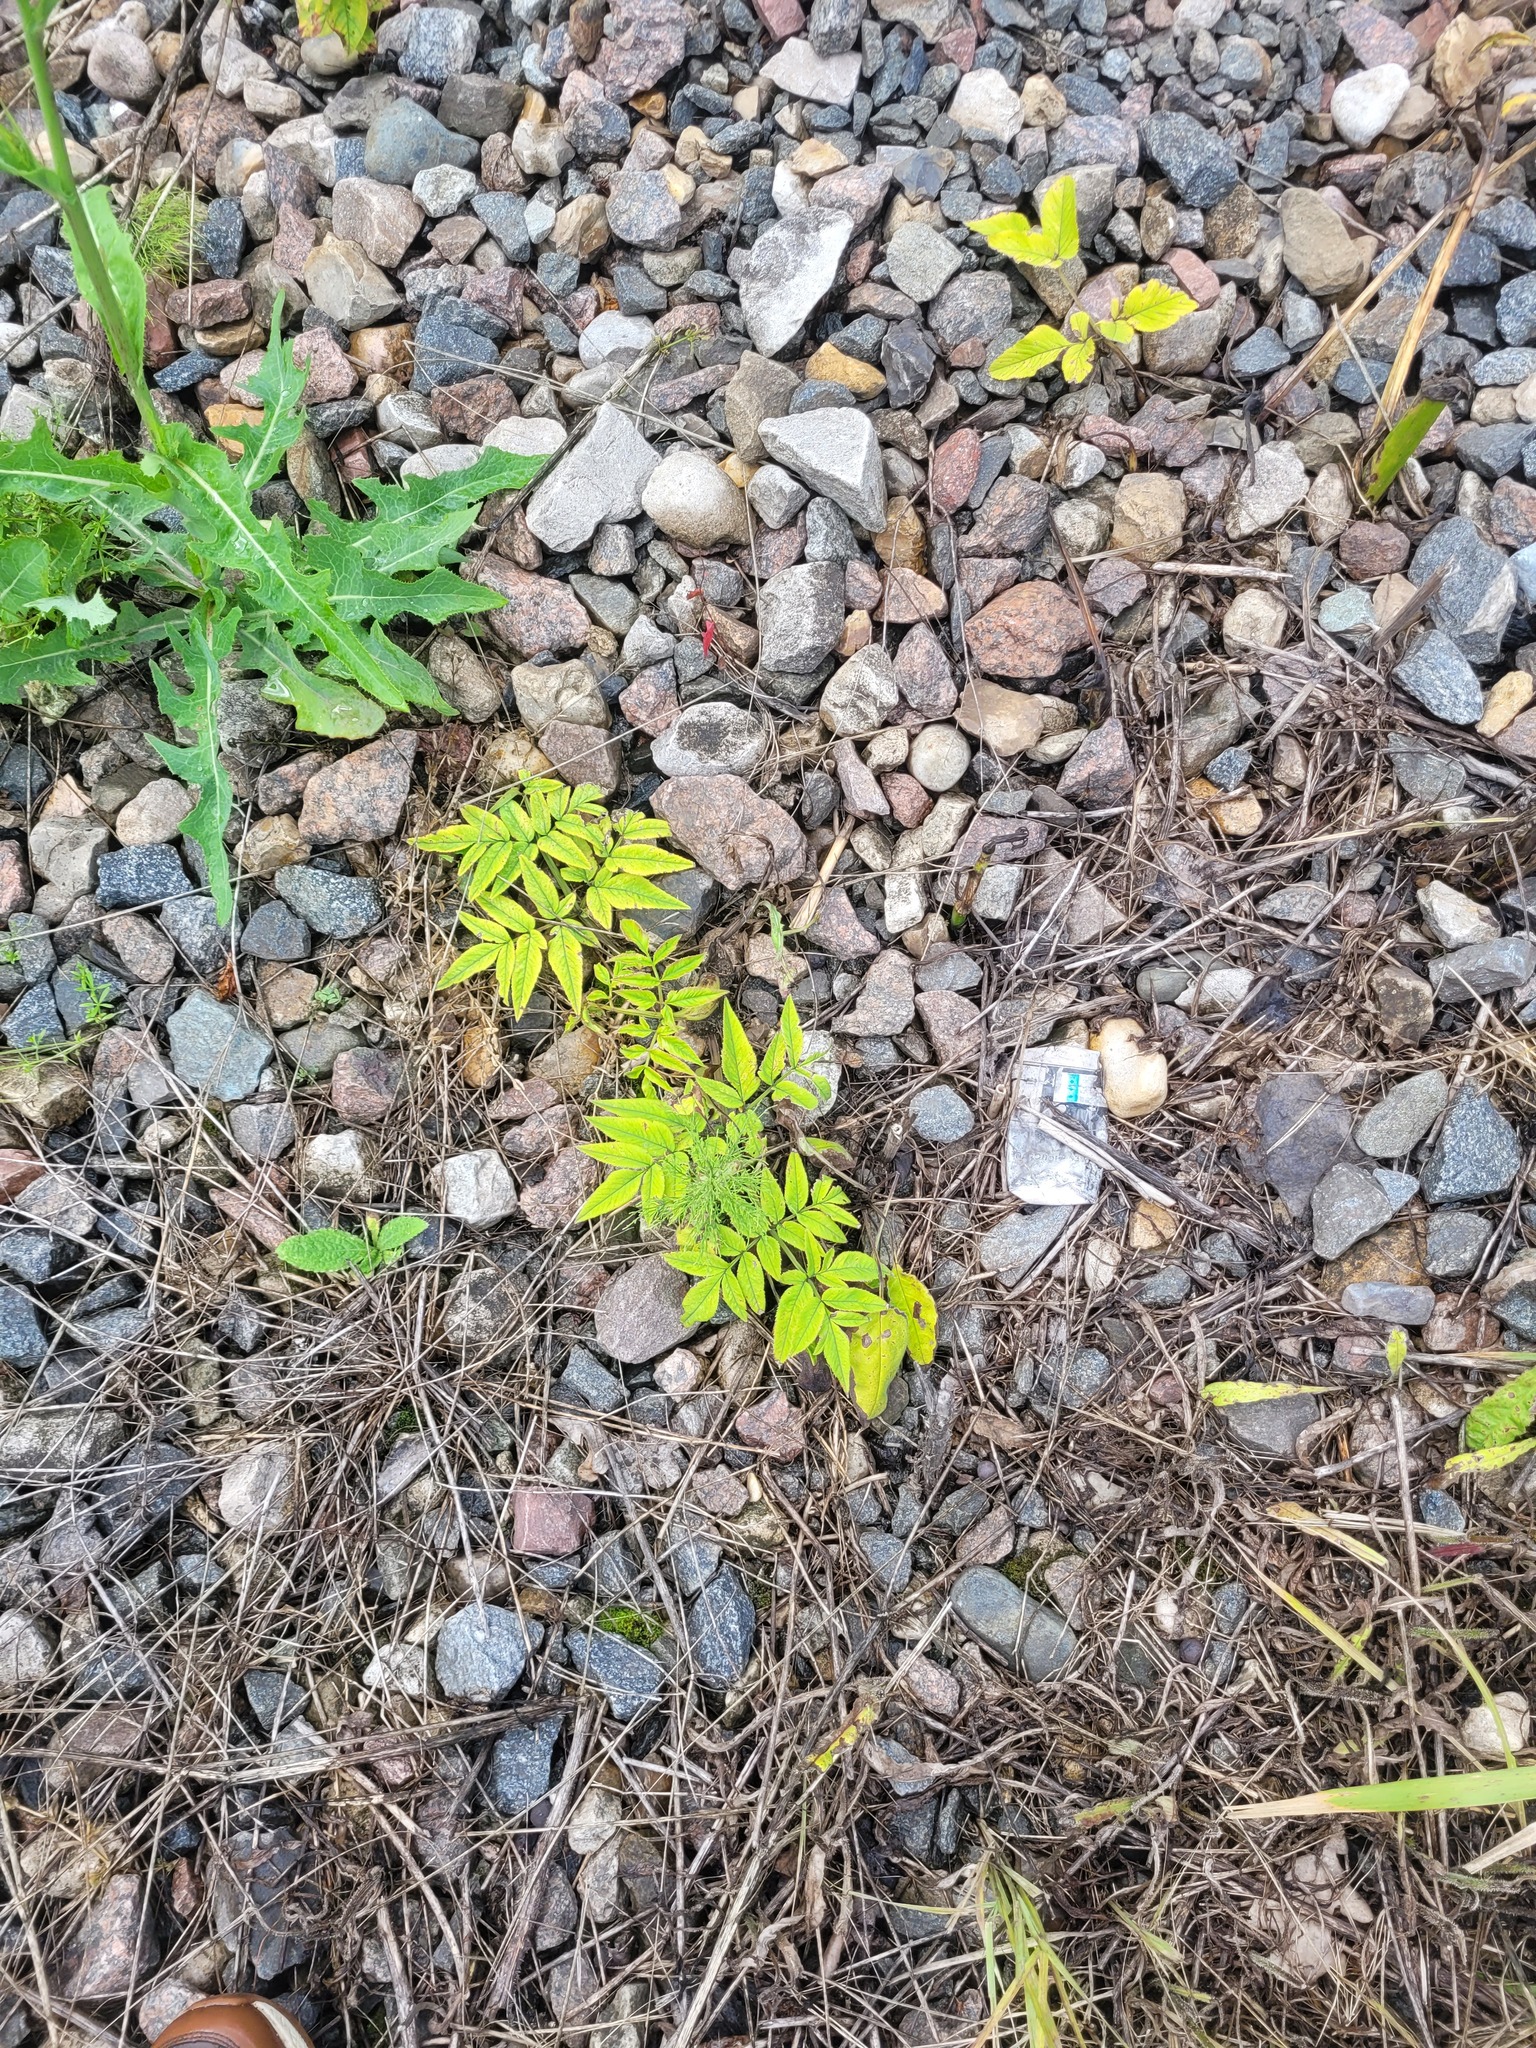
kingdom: Plantae
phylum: Tracheophyta
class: Magnoliopsida
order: Apiales
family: Apiaceae
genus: Angelica
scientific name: Angelica sylvestris
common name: Wild angelica
